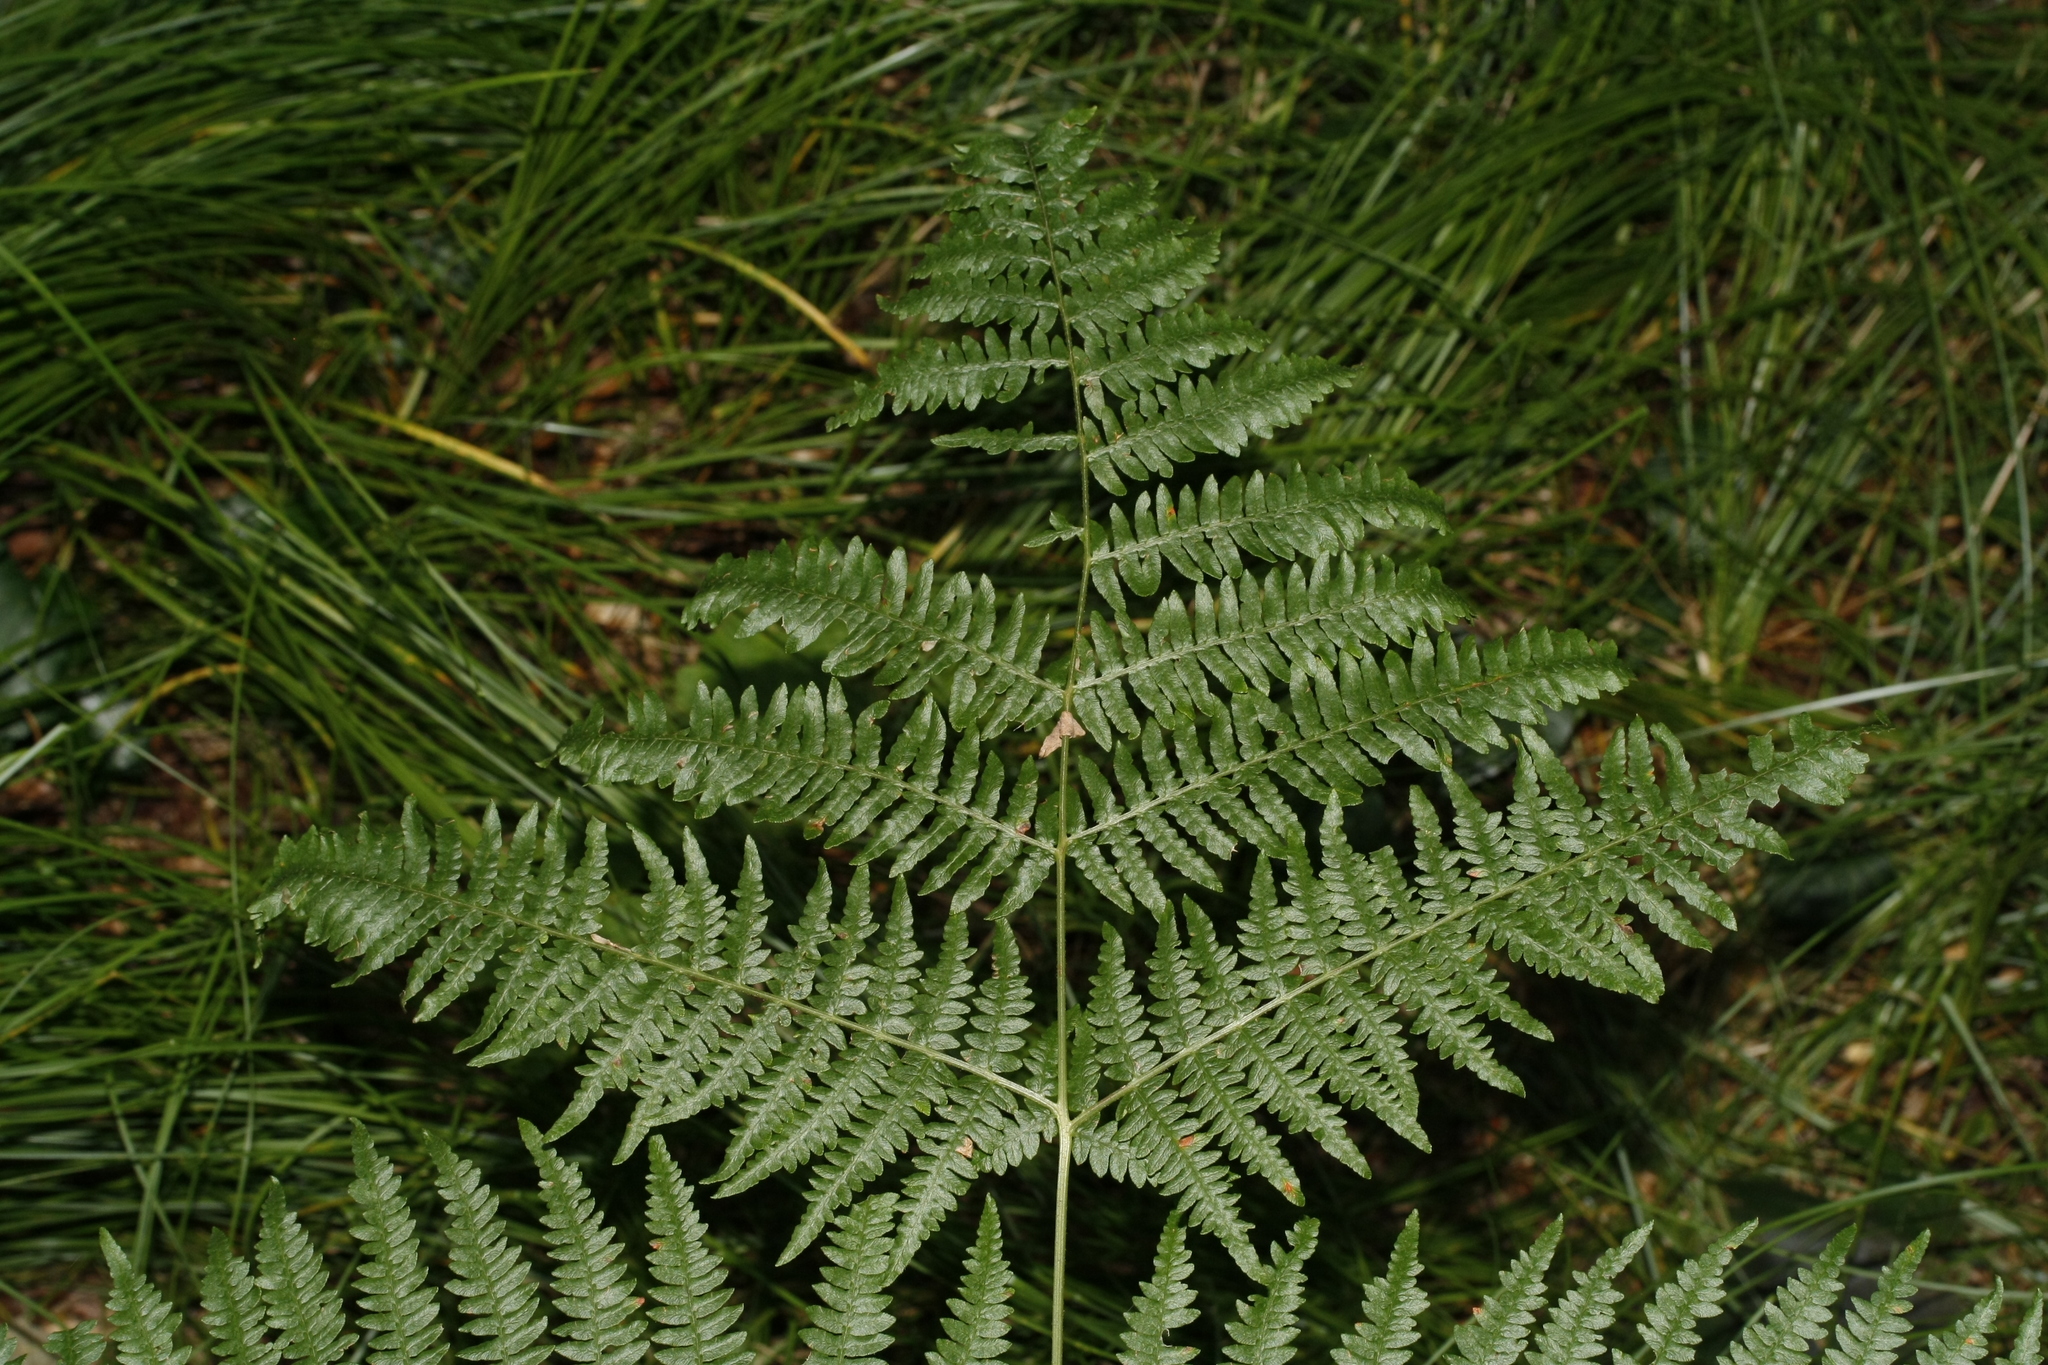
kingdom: Plantae
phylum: Tracheophyta
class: Polypodiopsida
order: Polypodiales
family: Dennstaedtiaceae
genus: Pteridium
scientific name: Pteridium aquilinum
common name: Bracken
